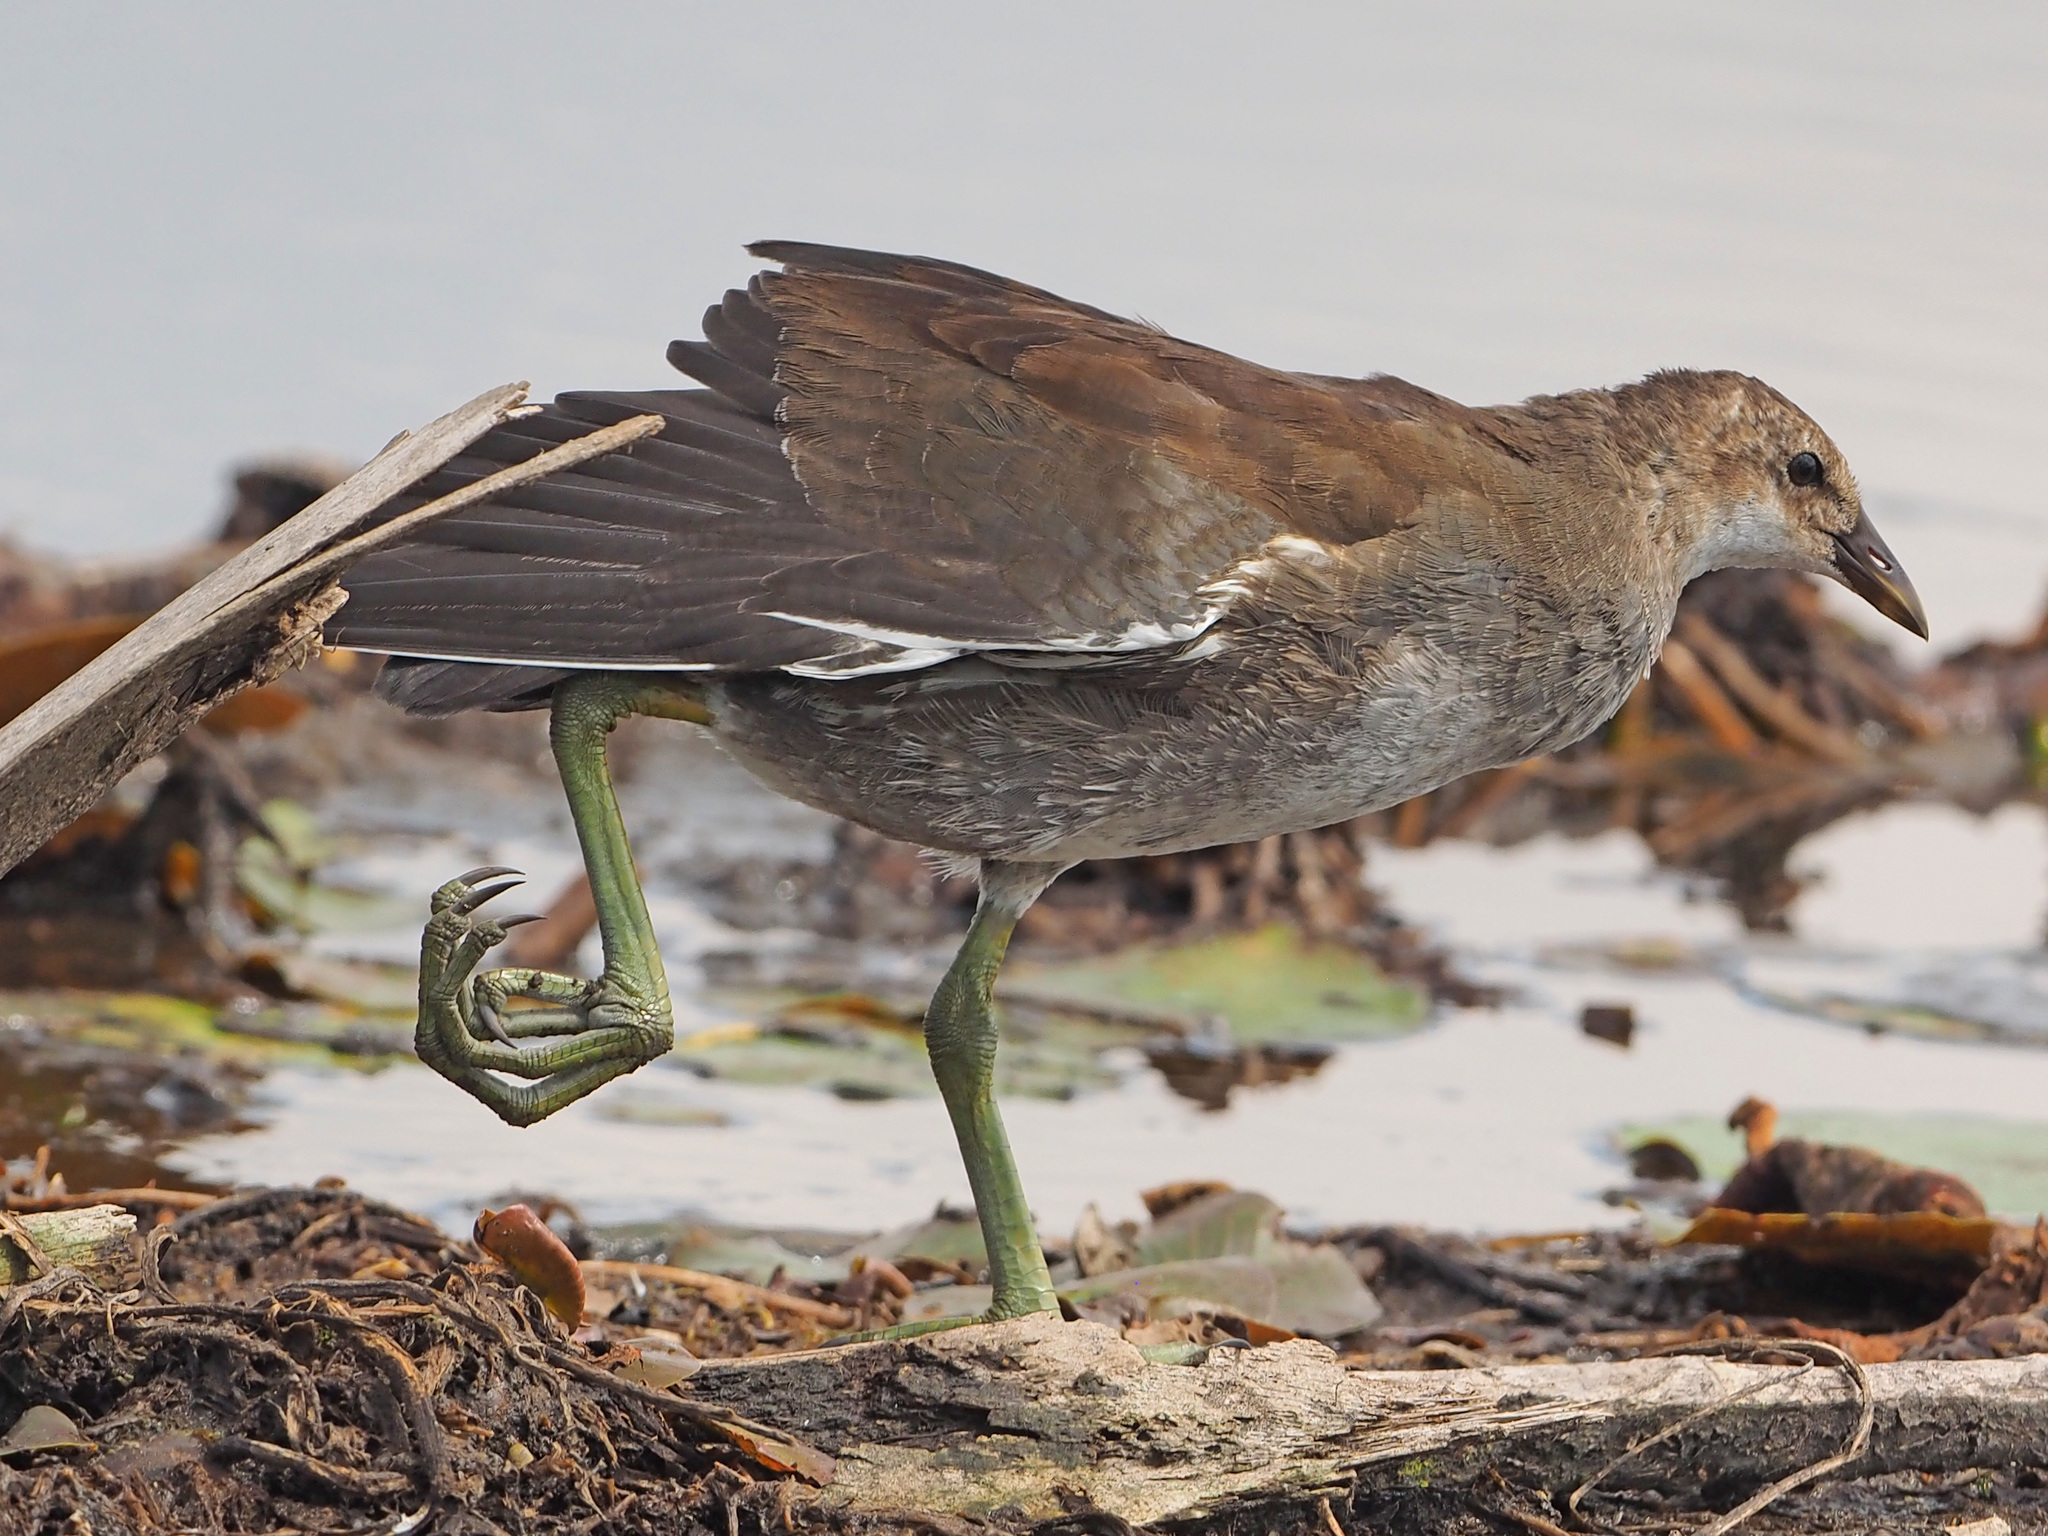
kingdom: Animalia
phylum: Chordata
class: Aves
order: Gruiformes
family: Rallidae
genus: Gallinula
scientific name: Gallinula chloropus
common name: Common moorhen
